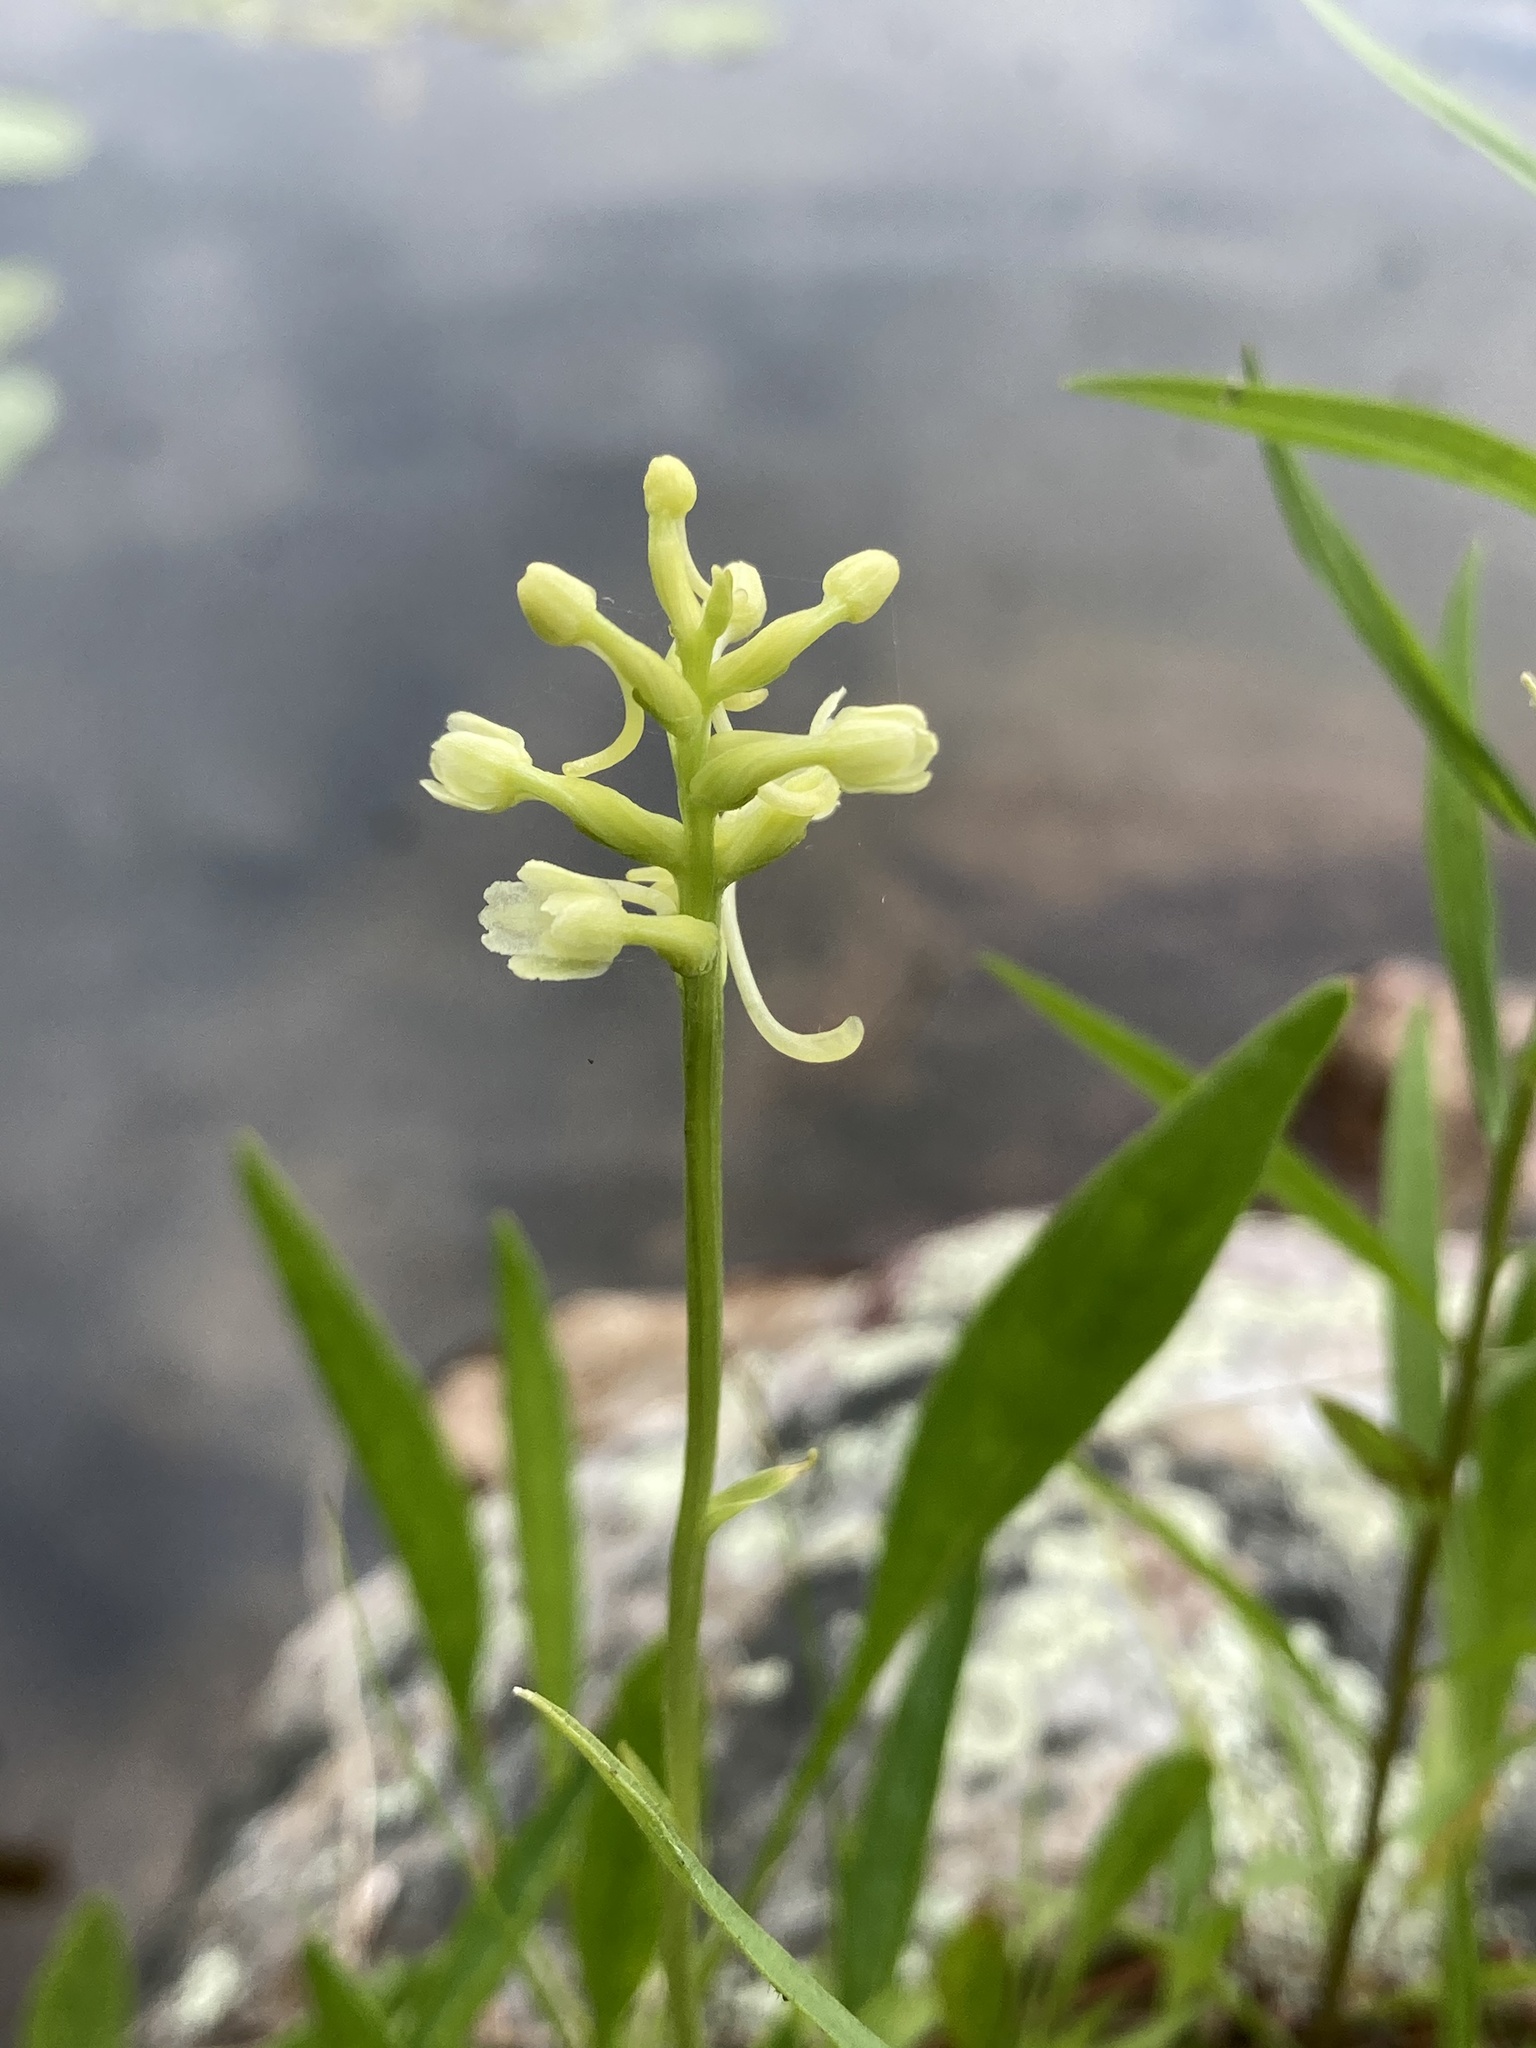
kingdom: Plantae
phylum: Tracheophyta
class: Liliopsida
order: Asparagales
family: Orchidaceae
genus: Platanthera
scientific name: Platanthera clavellata
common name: Club-spur orchid
